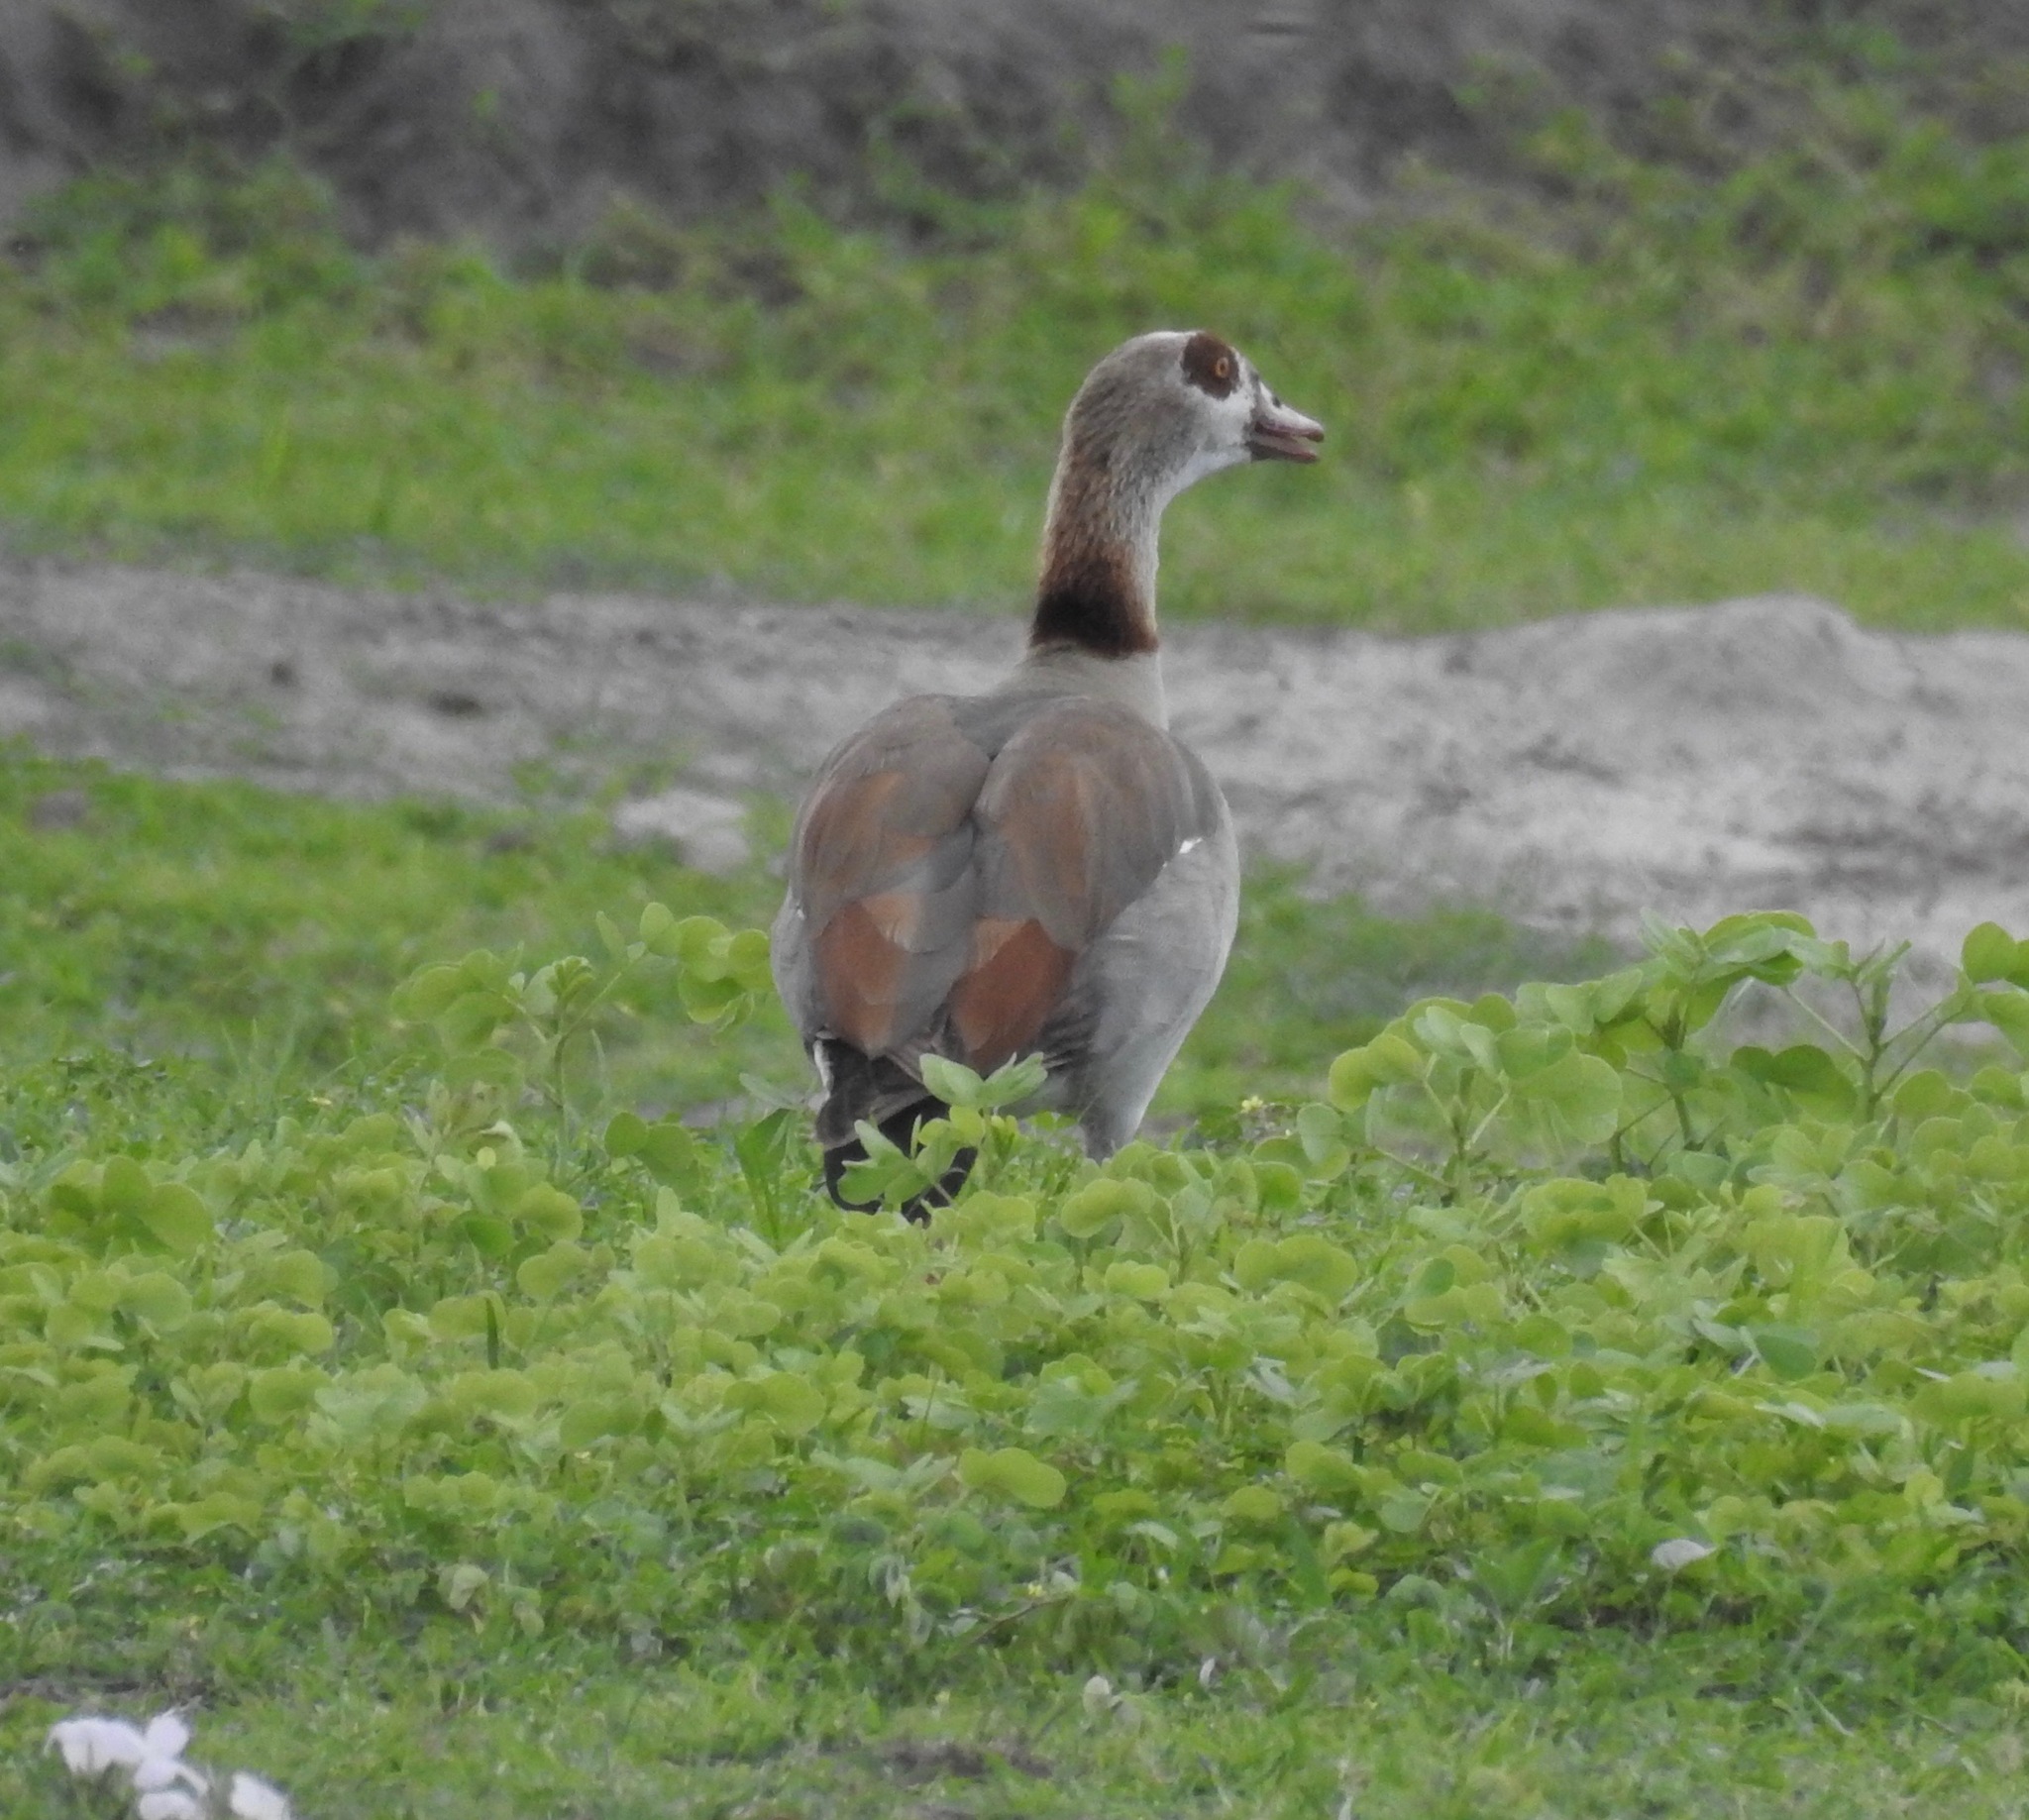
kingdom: Animalia
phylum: Chordata
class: Aves
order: Anseriformes
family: Anatidae
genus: Alopochen
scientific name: Alopochen aegyptiaca
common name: Egyptian goose
